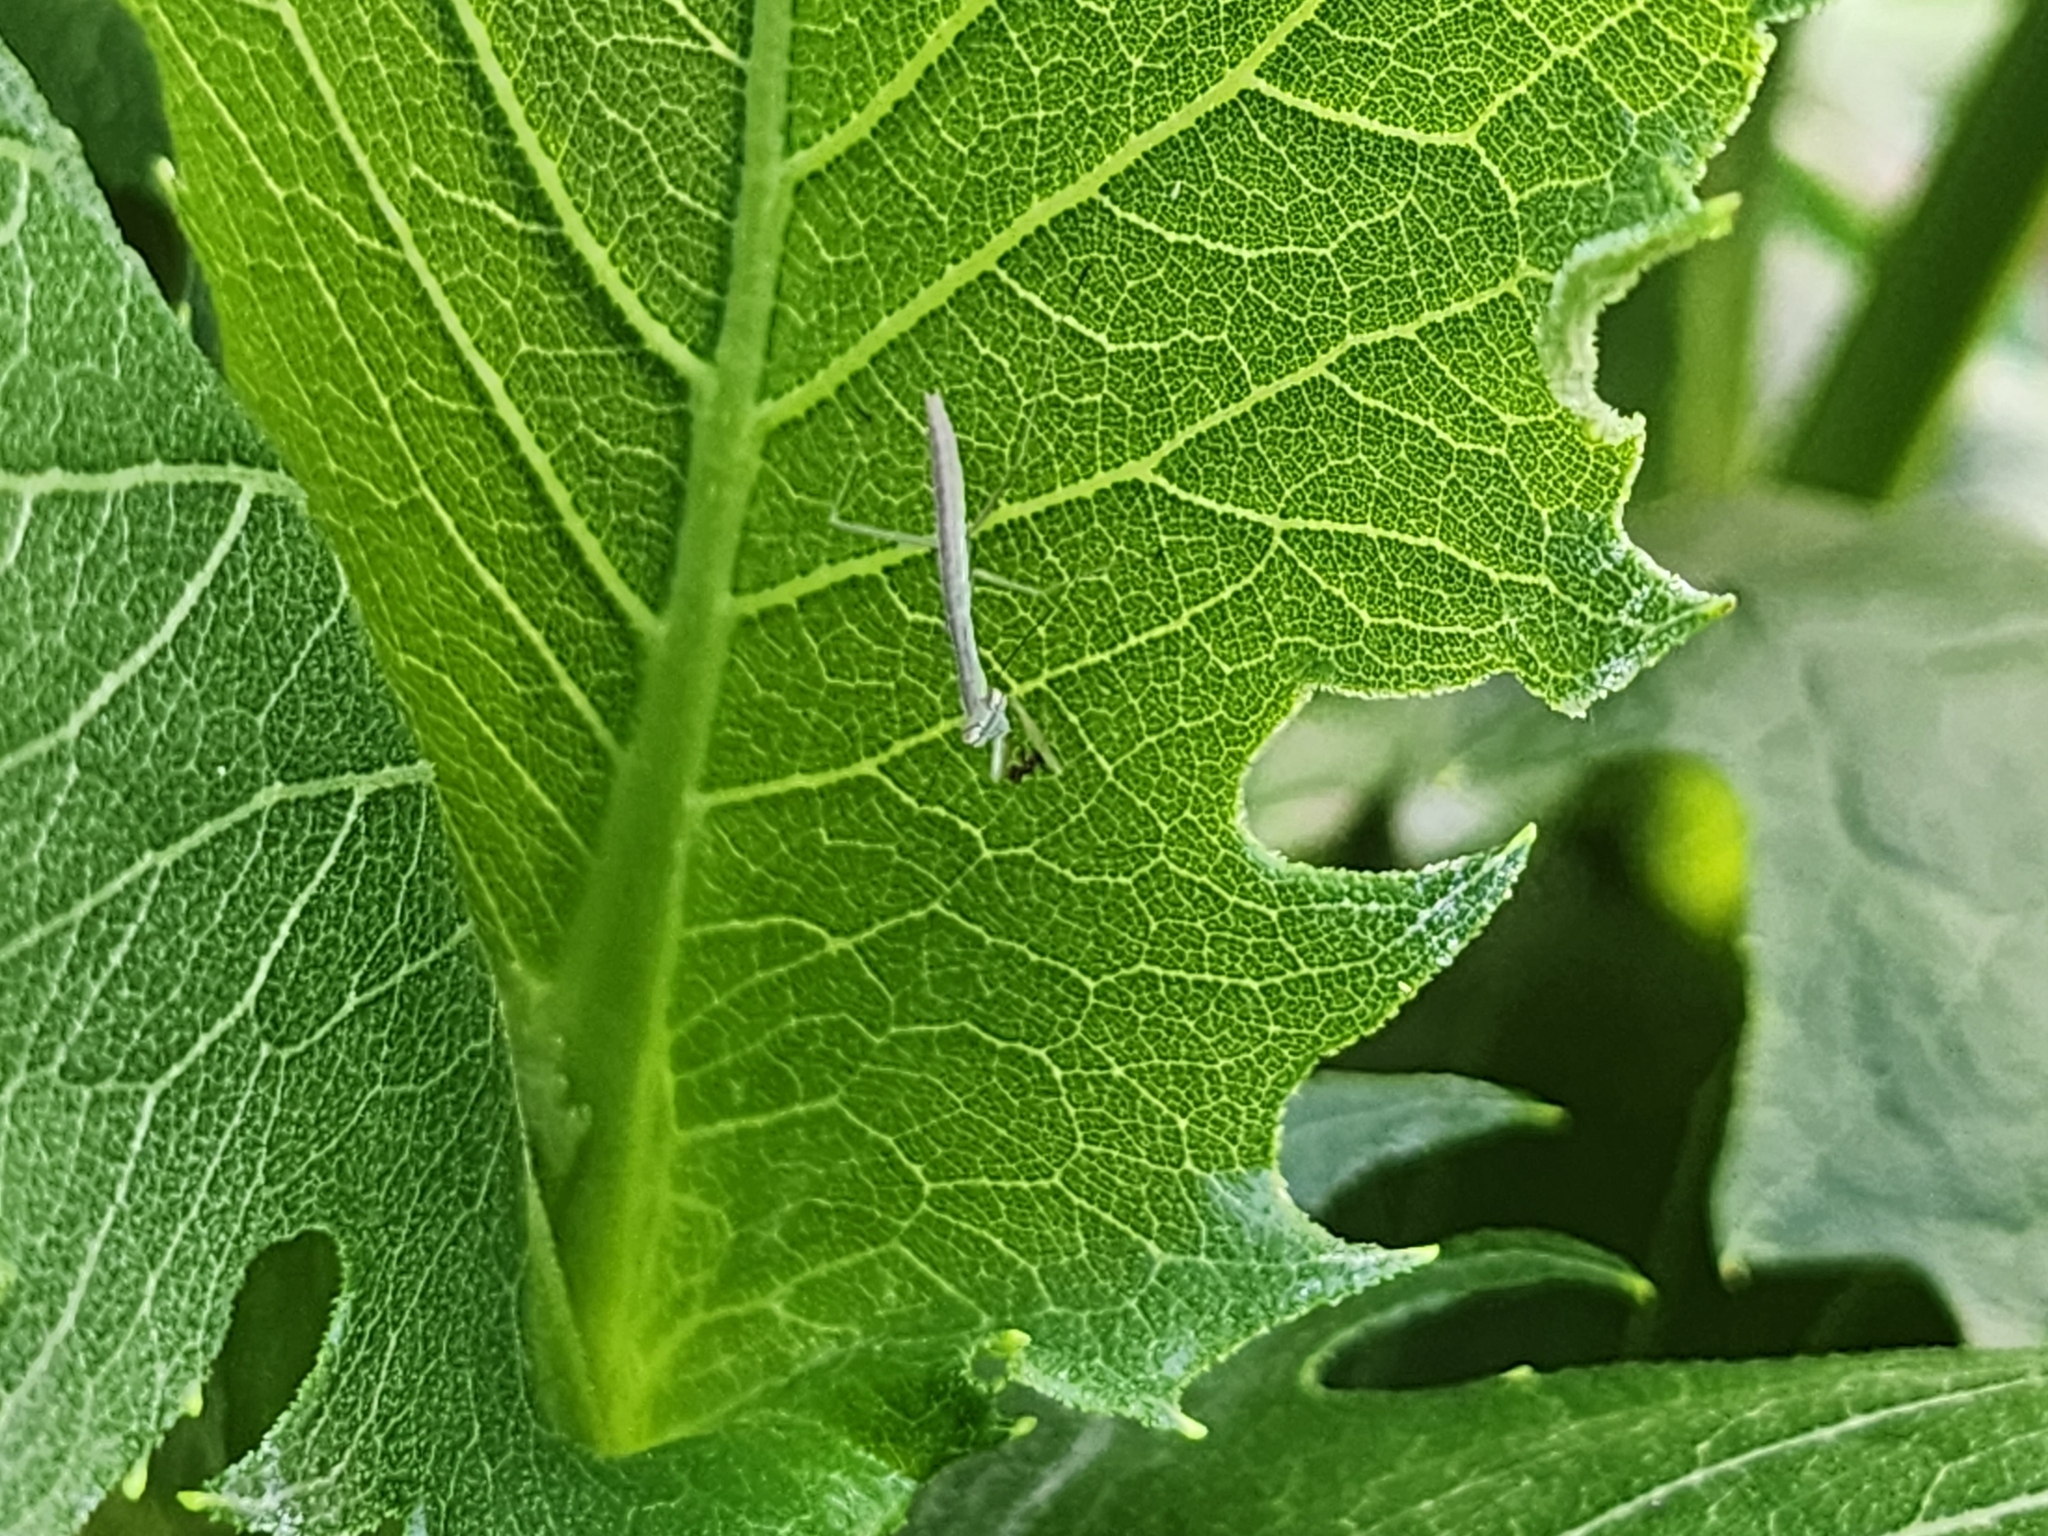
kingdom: Animalia
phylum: Arthropoda
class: Insecta
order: Mantodea
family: Mantidae
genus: Tenodera
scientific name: Tenodera sinensis
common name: Chinese mantis
